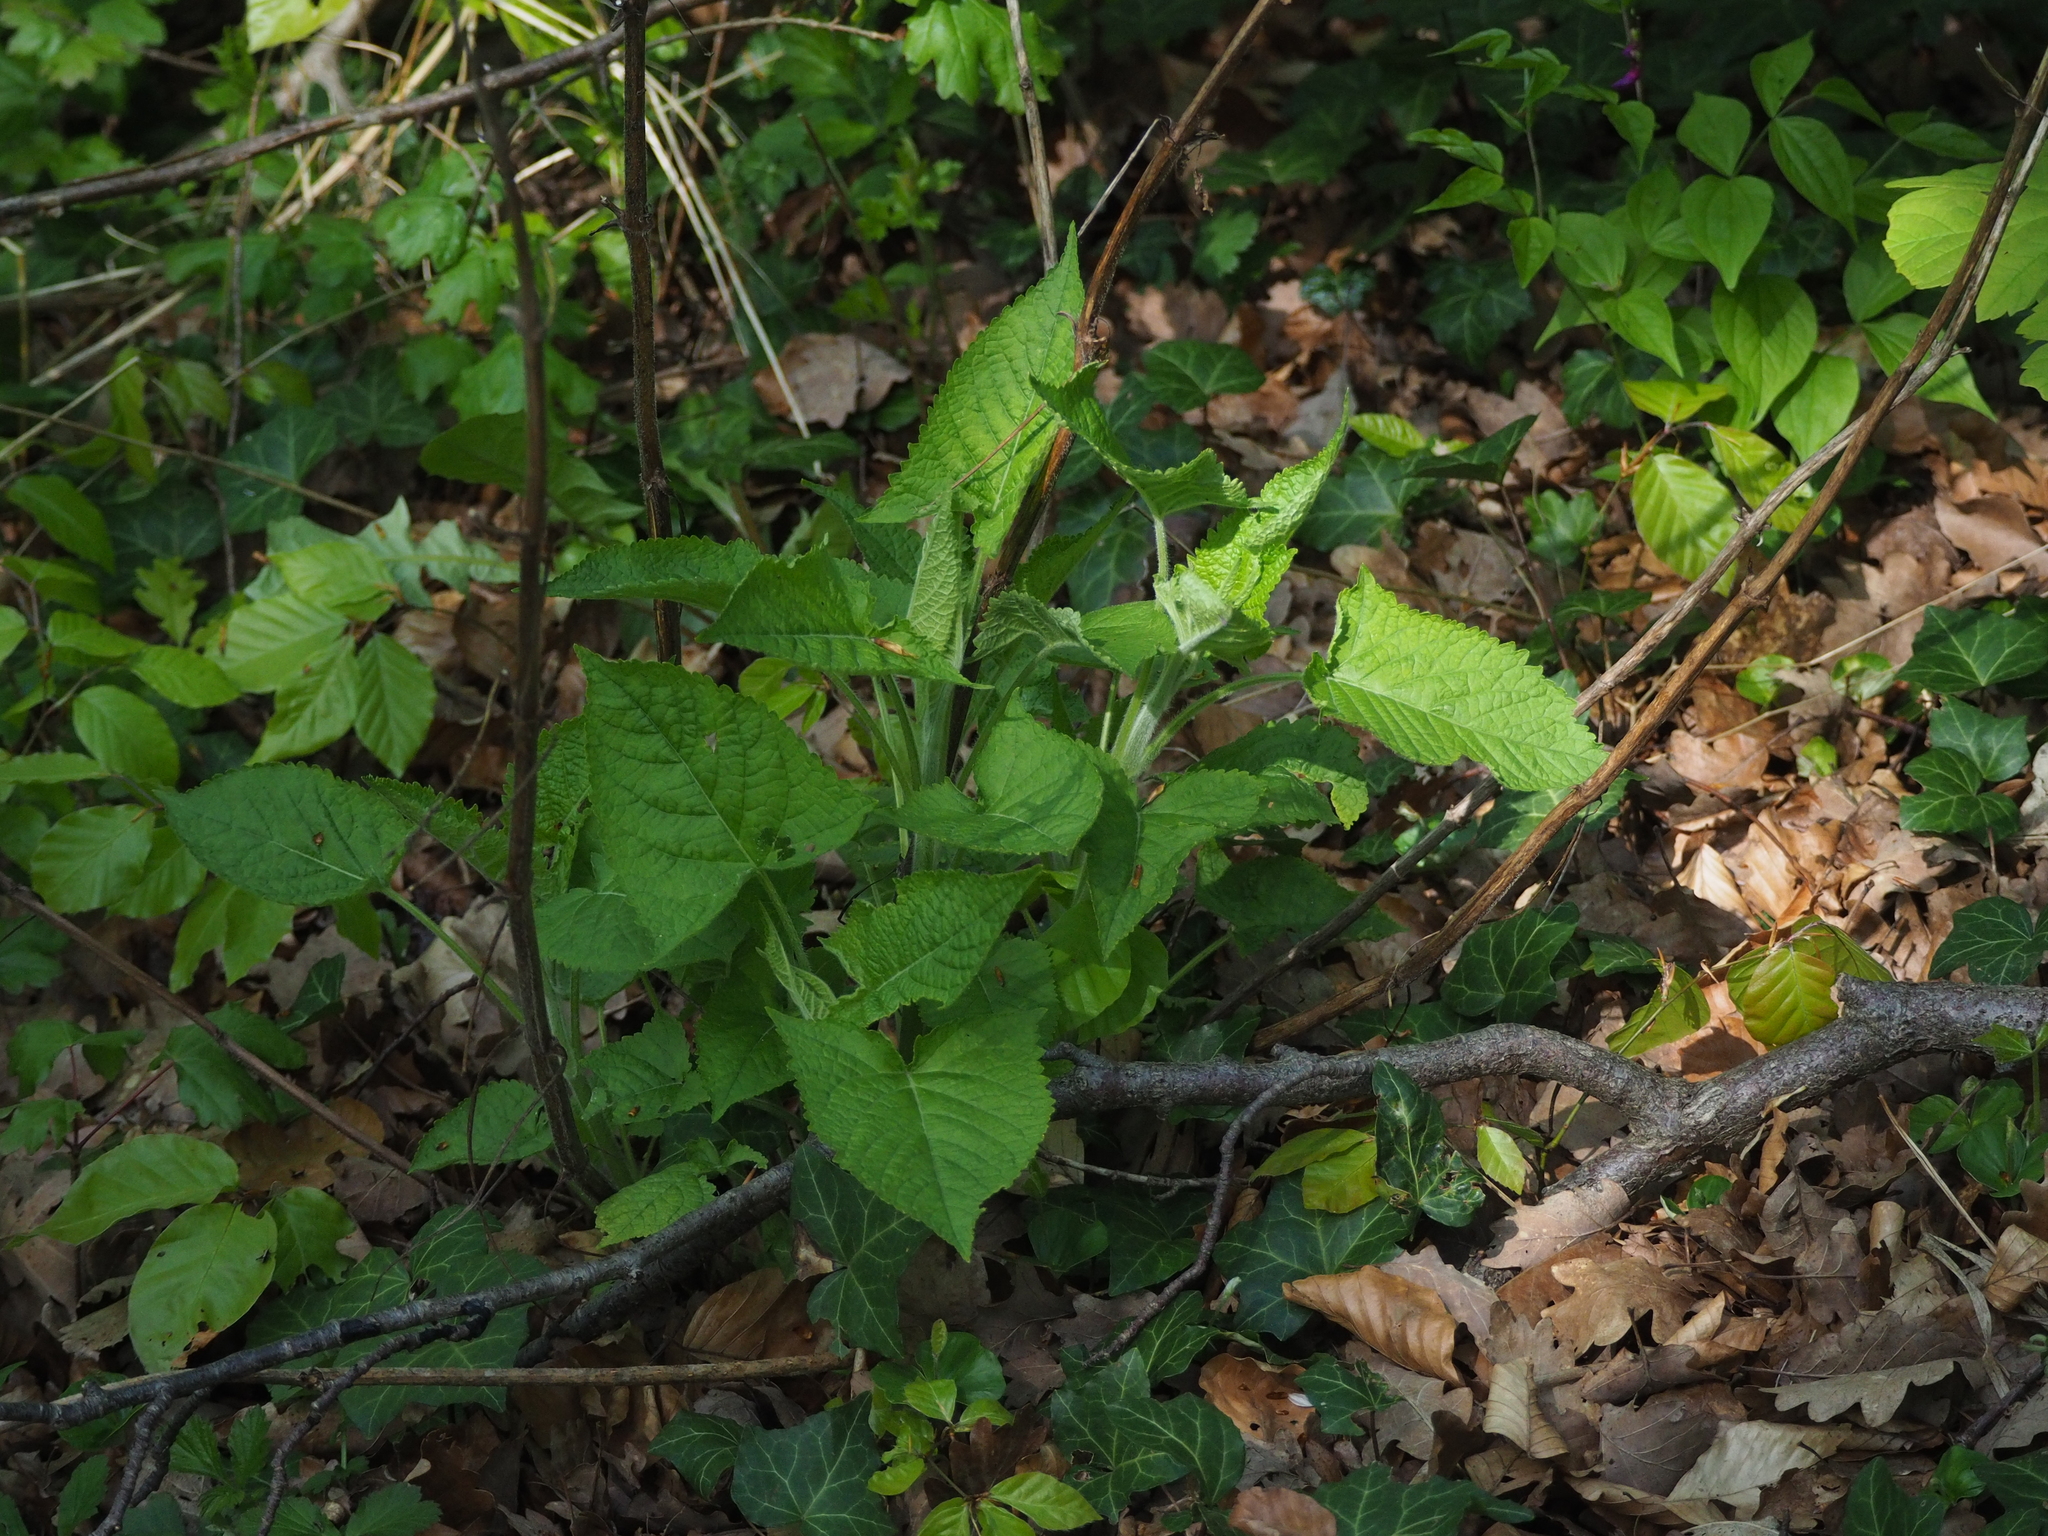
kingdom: Plantae
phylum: Tracheophyta
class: Magnoliopsida
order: Lamiales
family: Lamiaceae
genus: Salvia
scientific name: Salvia glutinosa
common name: Sticky clary
